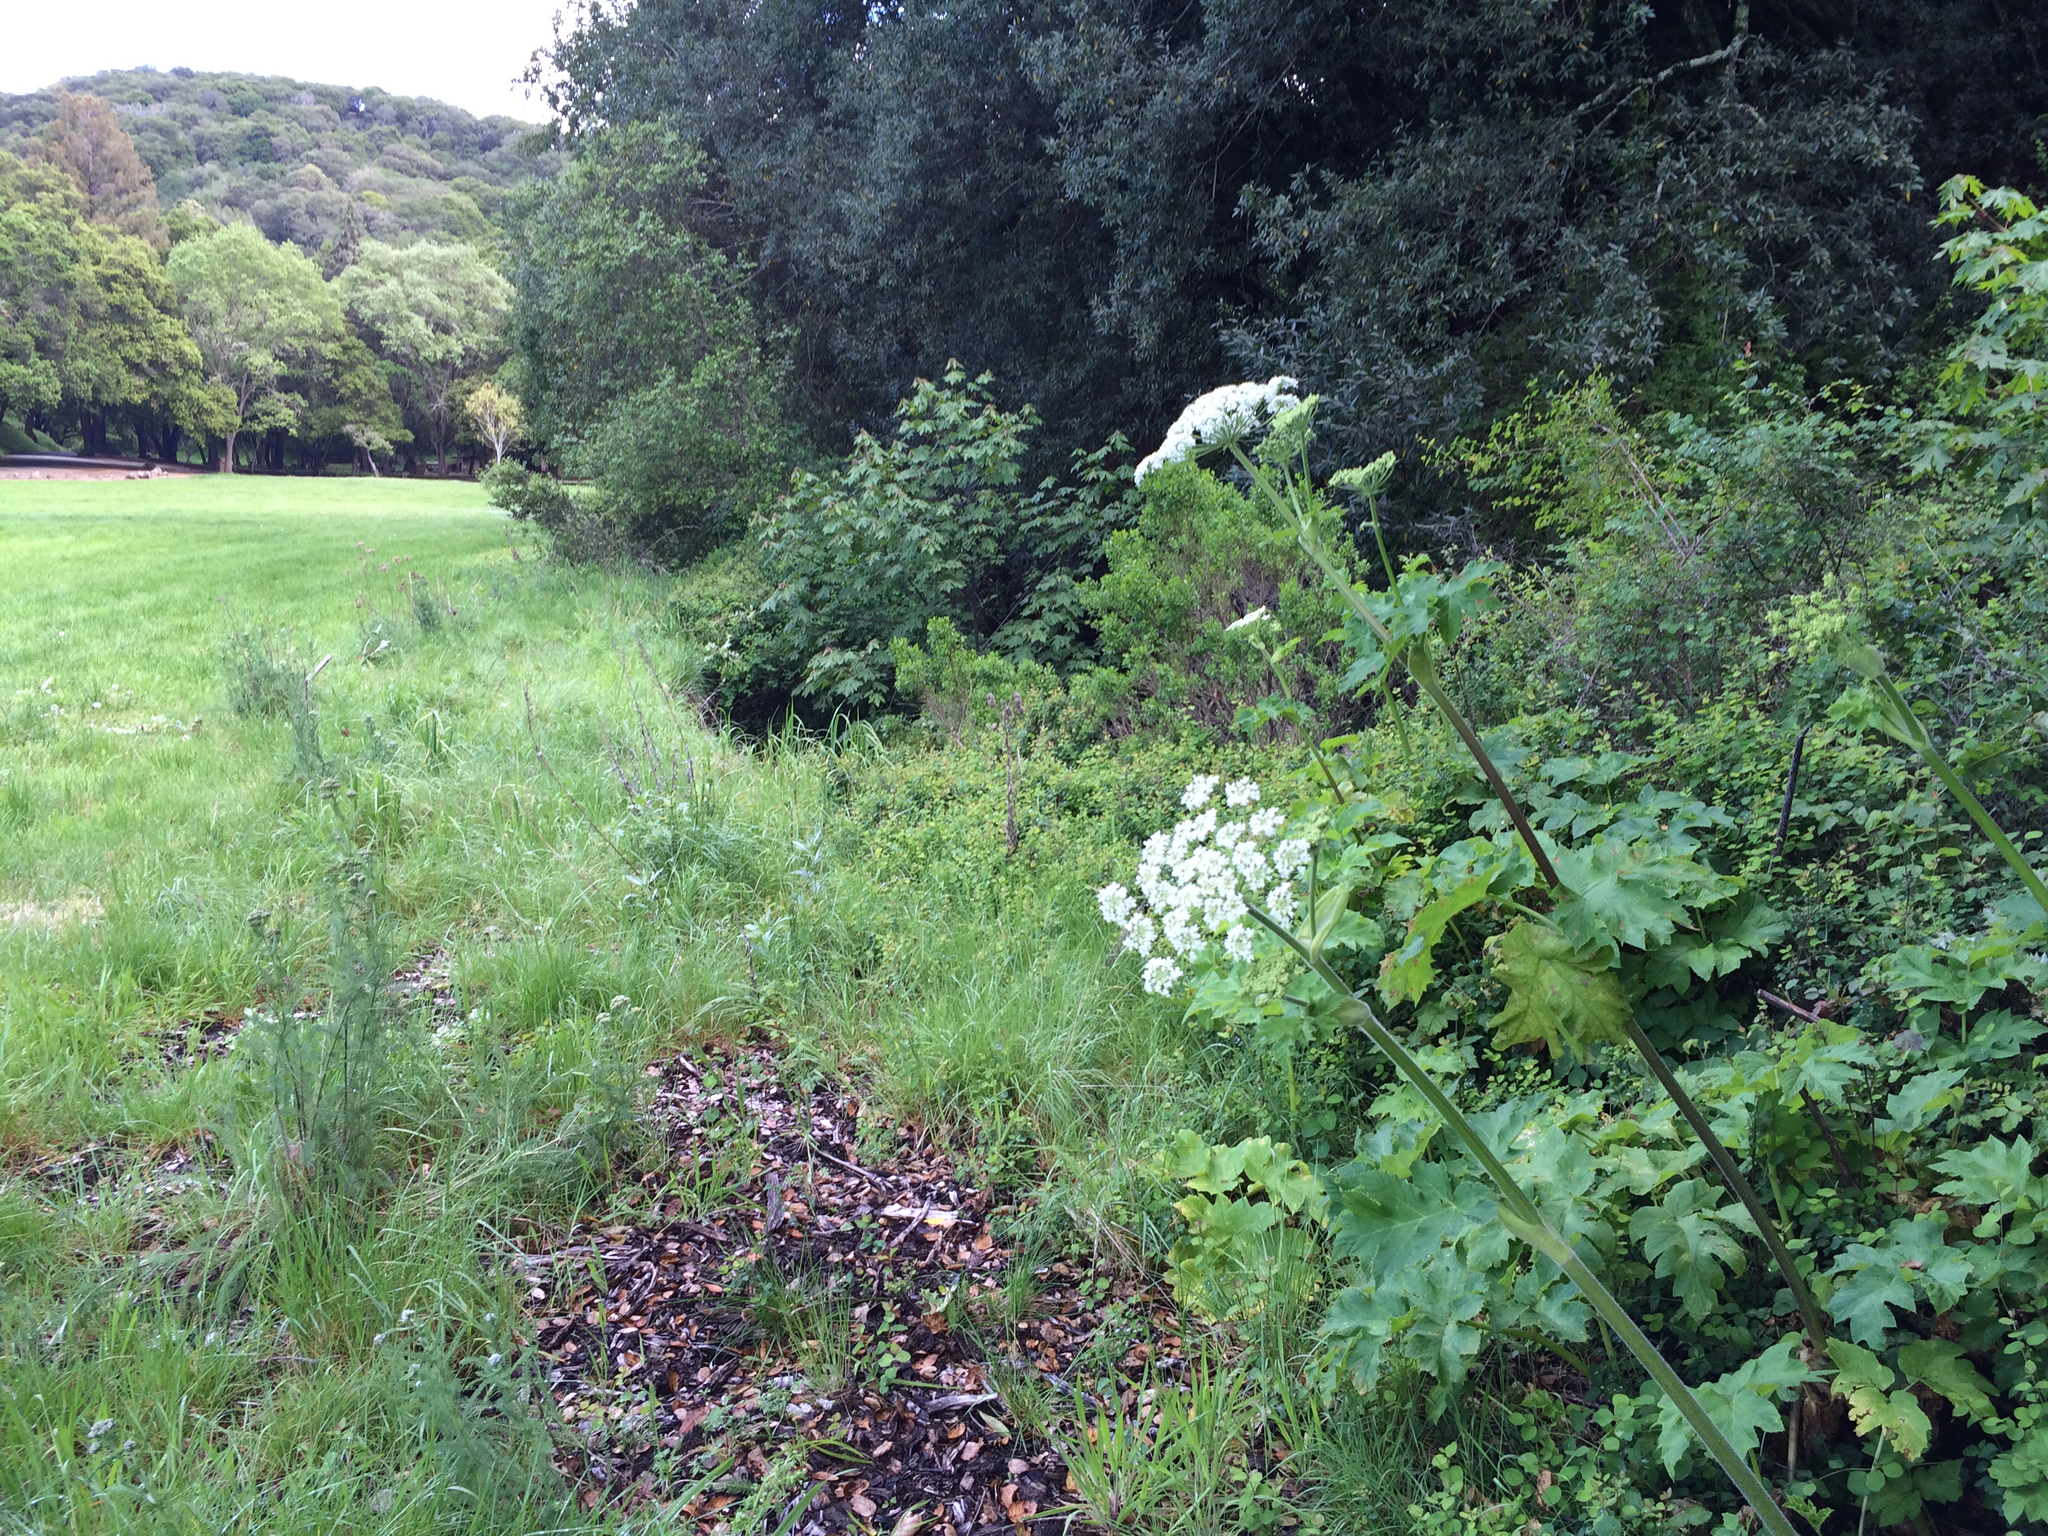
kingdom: Plantae
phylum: Tracheophyta
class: Magnoliopsida
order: Apiales
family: Apiaceae
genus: Heracleum
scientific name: Heracleum maximum
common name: American cow parsnip
